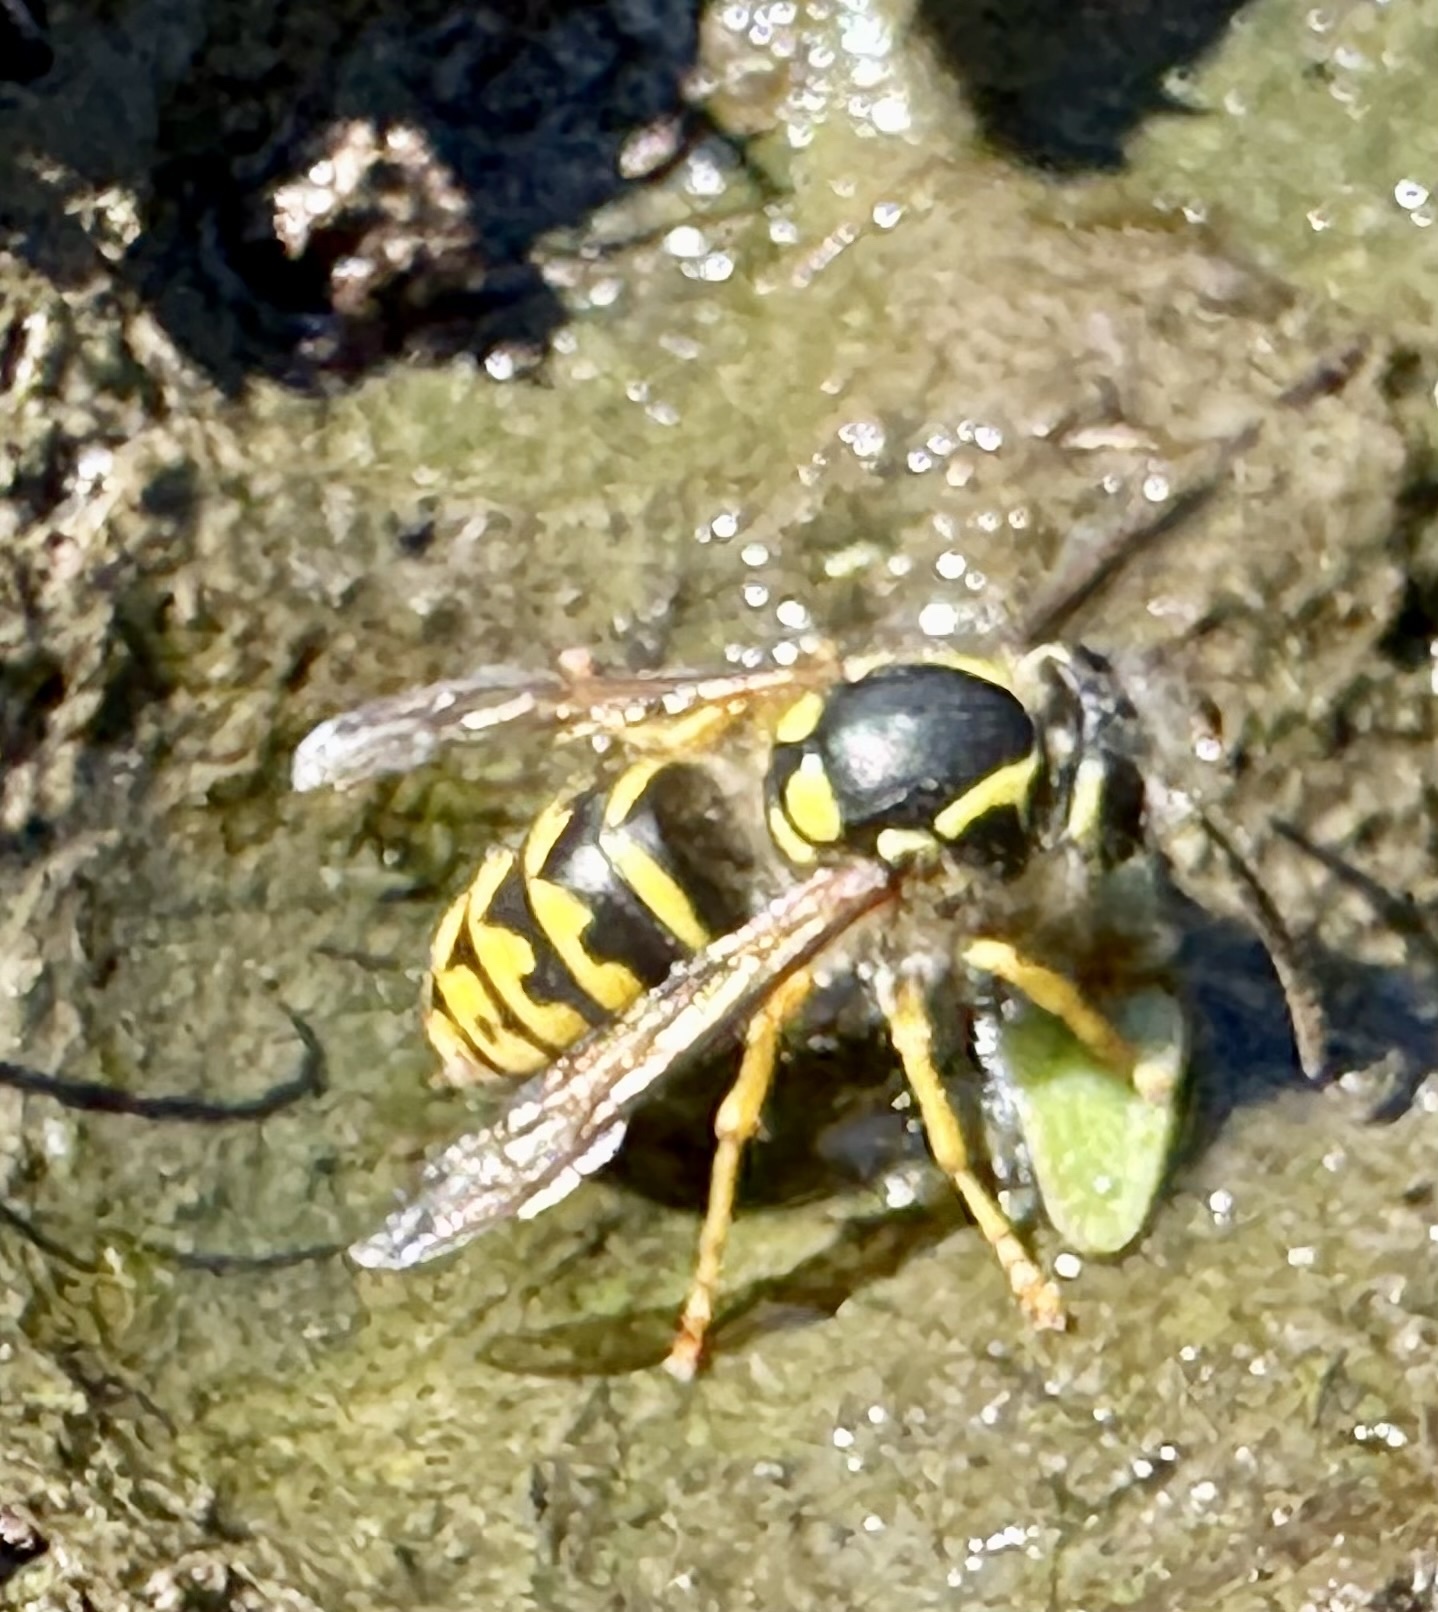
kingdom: Animalia
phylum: Arthropoda
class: Insecta
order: Hymenoptera
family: Vespidae
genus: Dolichovespula
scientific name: Dolichovespula arenaria
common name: Aerial yellowjacket
